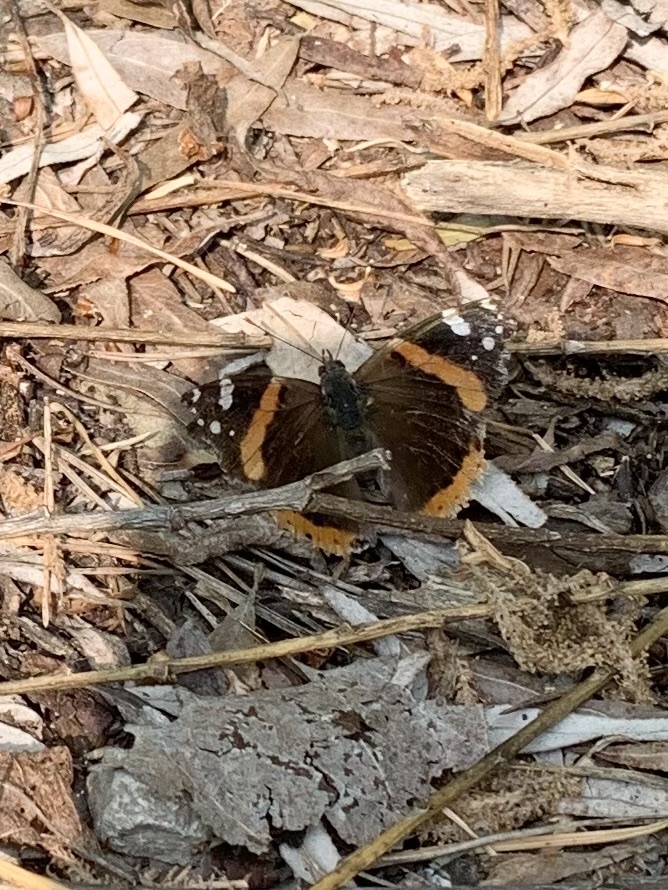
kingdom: Animalia
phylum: Arthropoda
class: Insecta
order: Lepidoptera
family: Nymphalidae
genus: Vanessa
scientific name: Vanessa atalanta
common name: Red admiral
